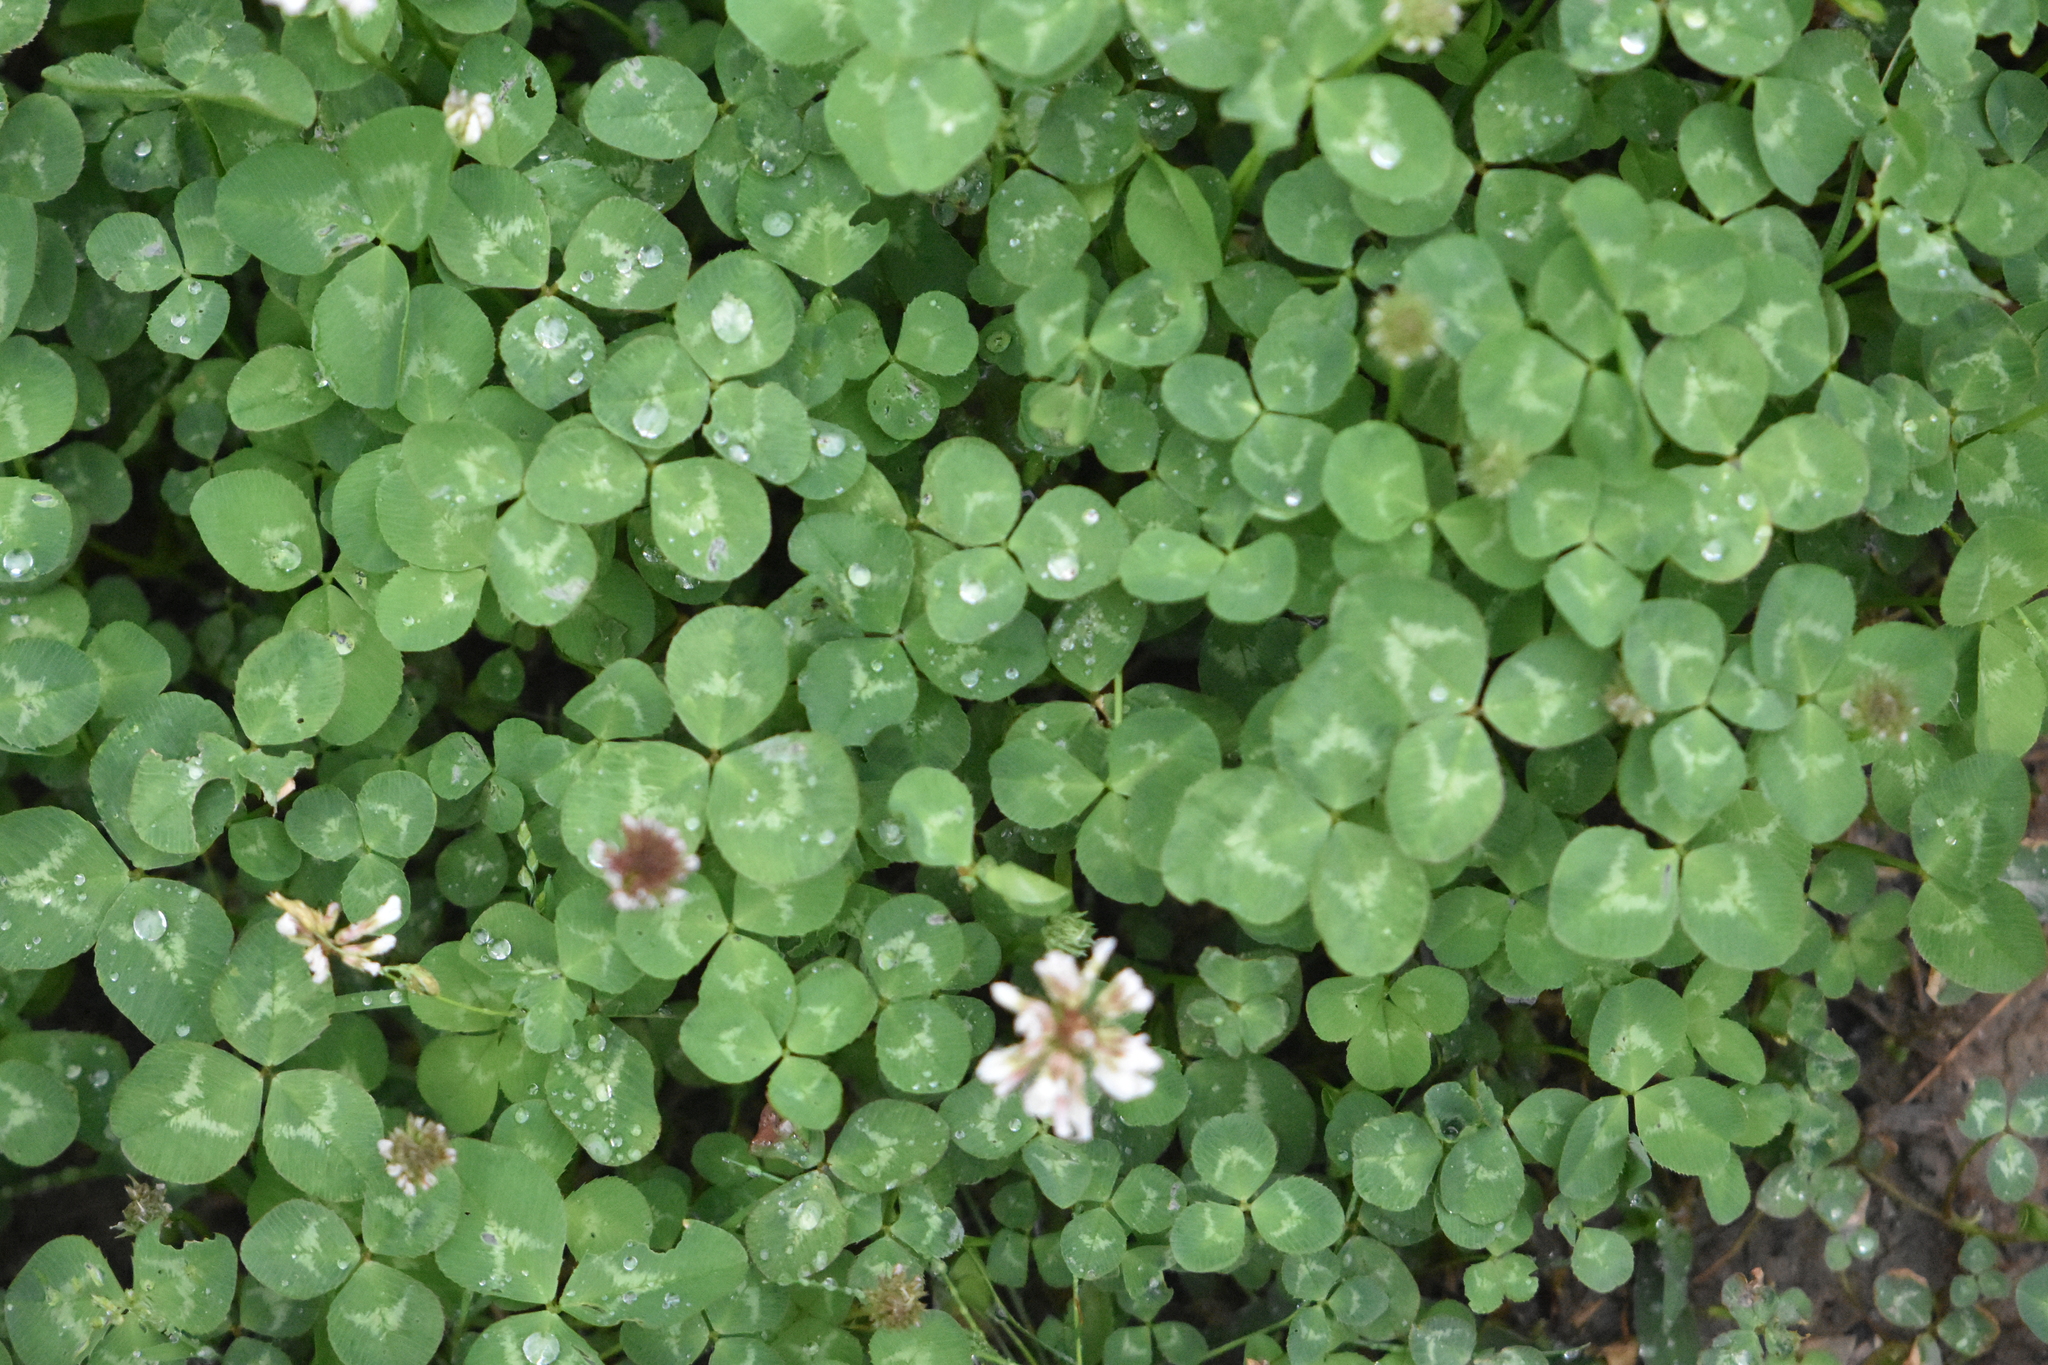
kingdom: Plantae
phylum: Tracheophyta
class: Magnoliopsida
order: Fabales
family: Fabaceae
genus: Trifolium
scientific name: Trifolium repens
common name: White clover
